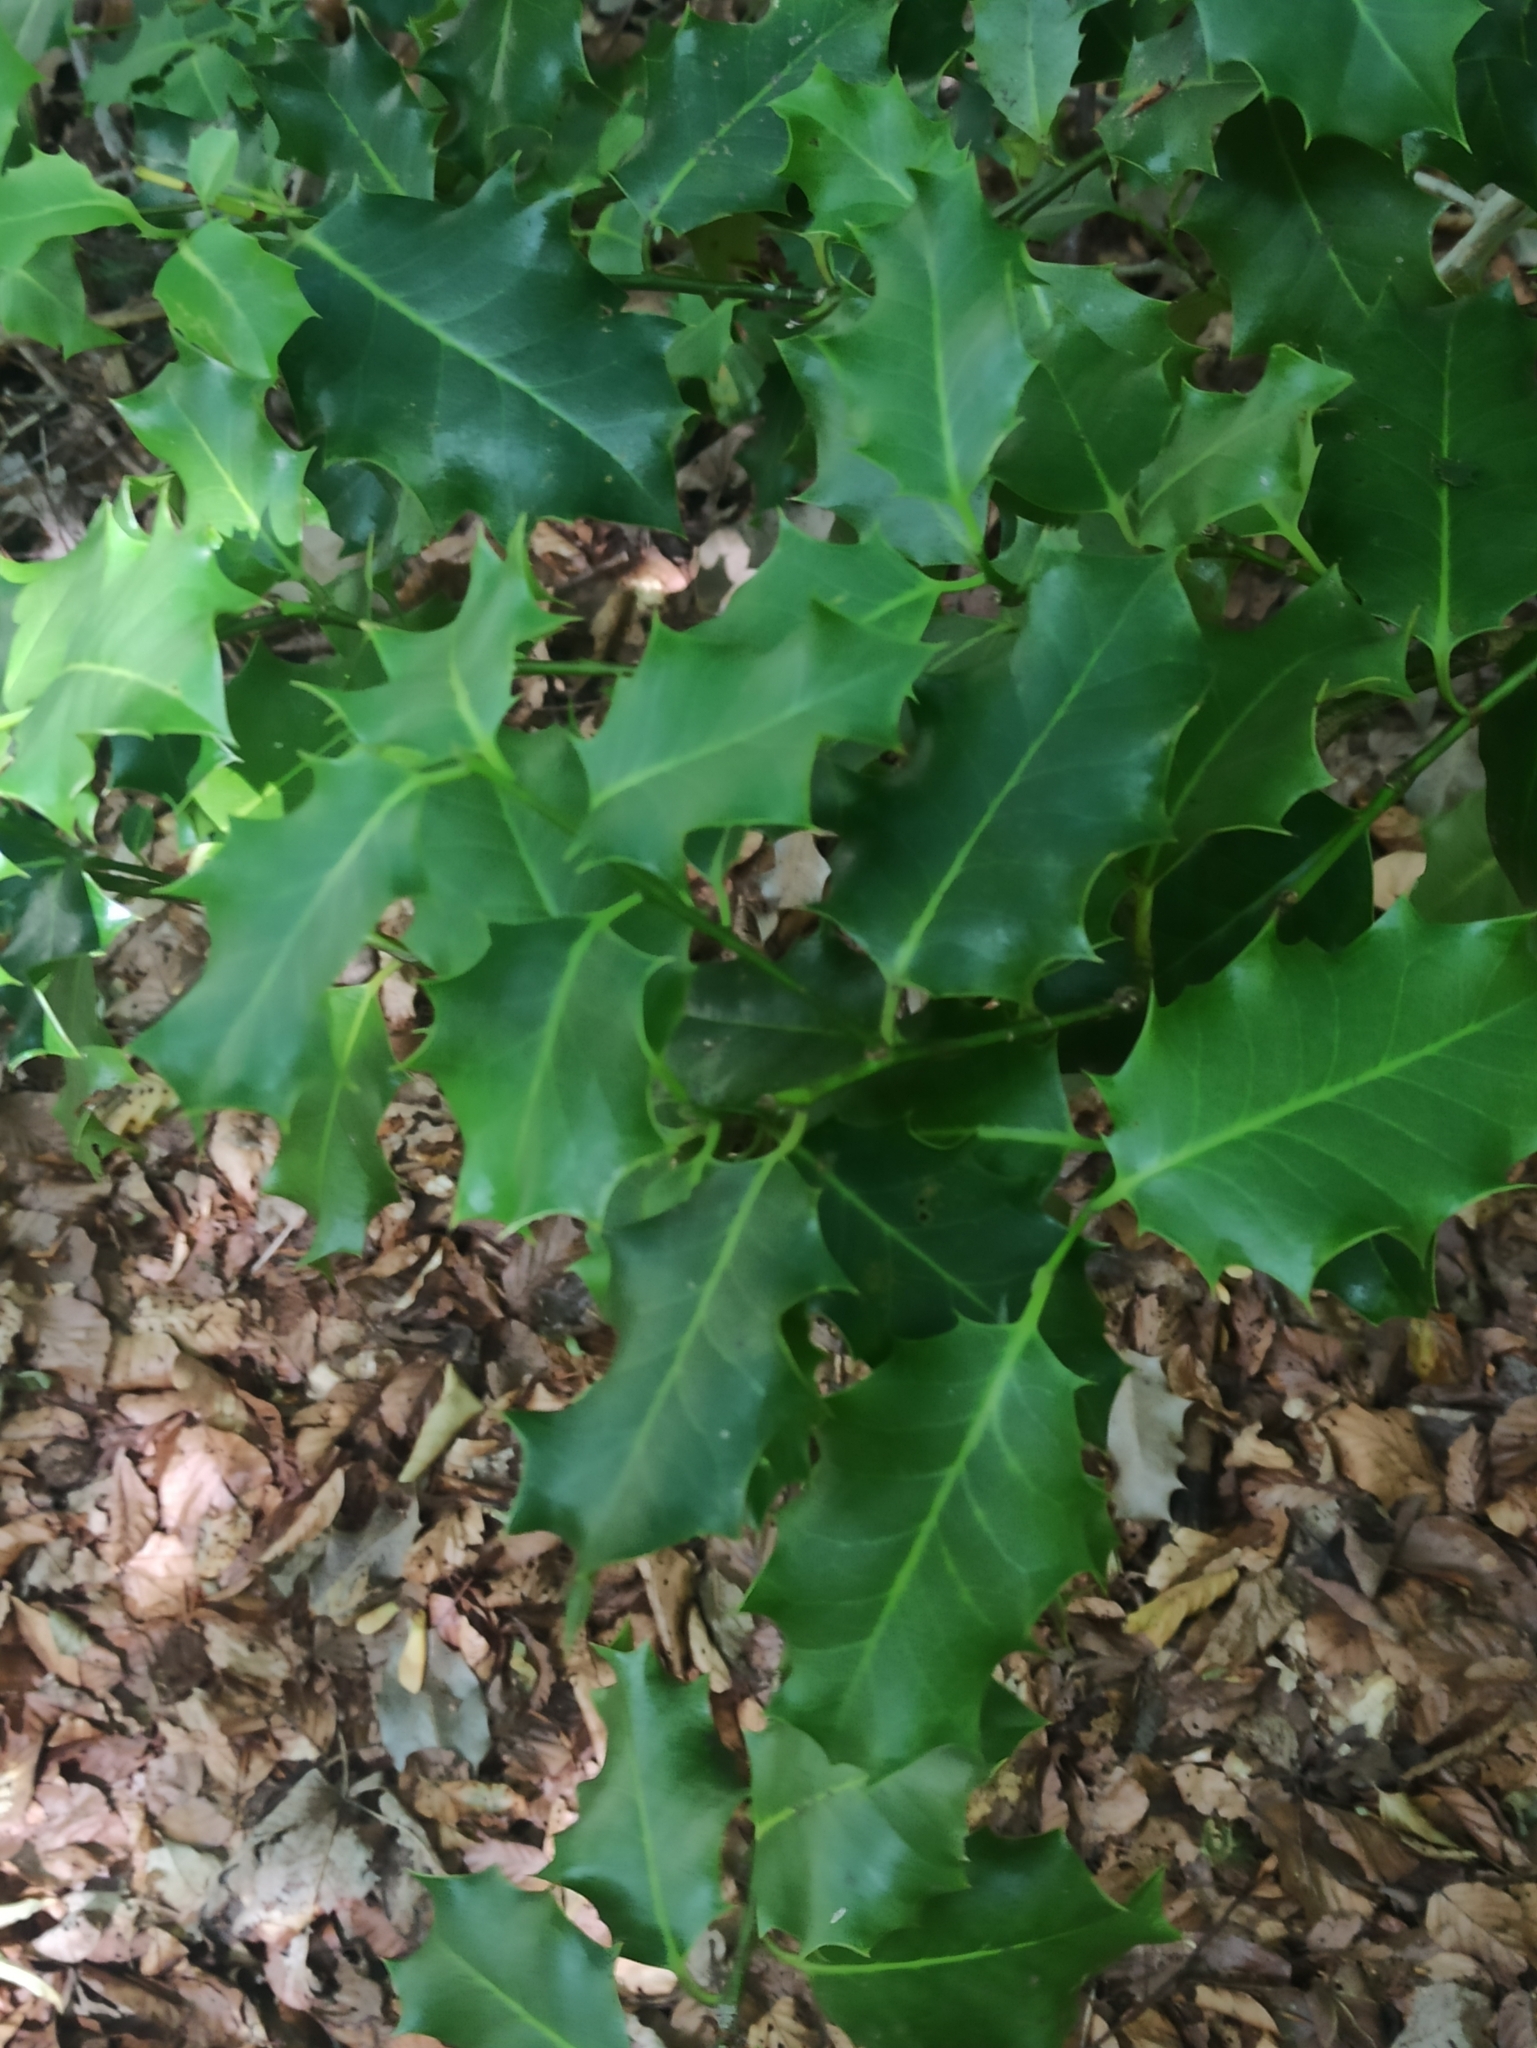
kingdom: Plantae
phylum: Tracheophyta
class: Magnoliopsida
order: Aquifoliales
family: Aquifoliaceae
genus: Ilex
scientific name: Ilex aquifolium
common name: English holly
